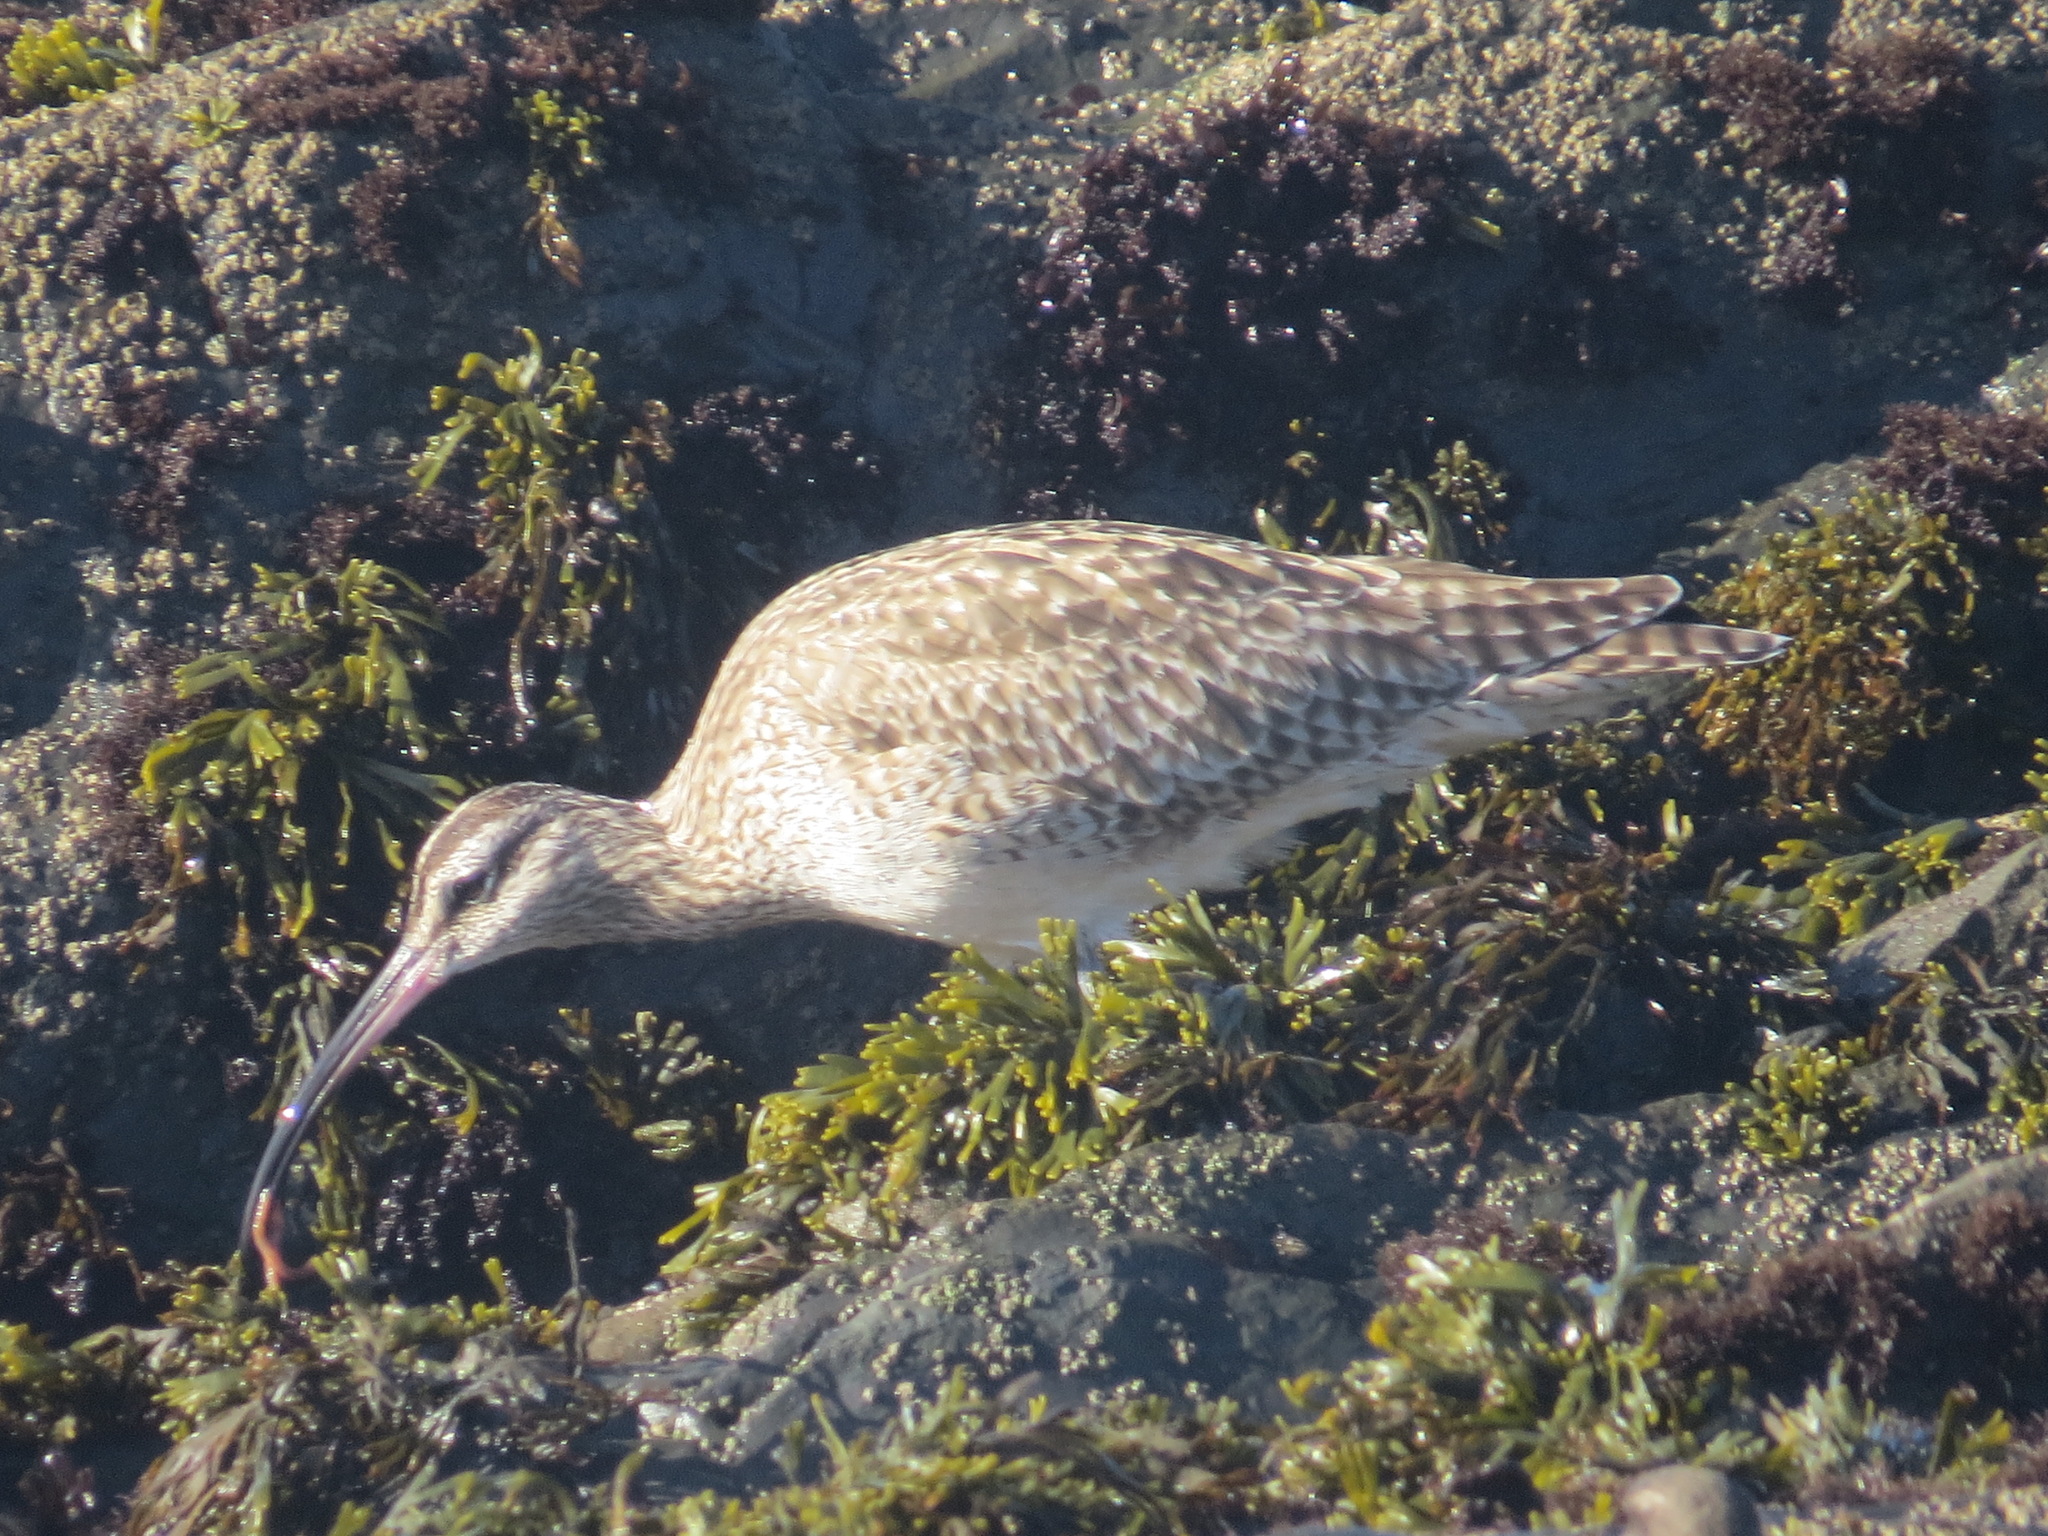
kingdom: Animalia
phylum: Chordata
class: Aves
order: Charadriiformes
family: Scolopacidae
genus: Numenius
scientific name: Numenius phaeopus
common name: Whimbrel
